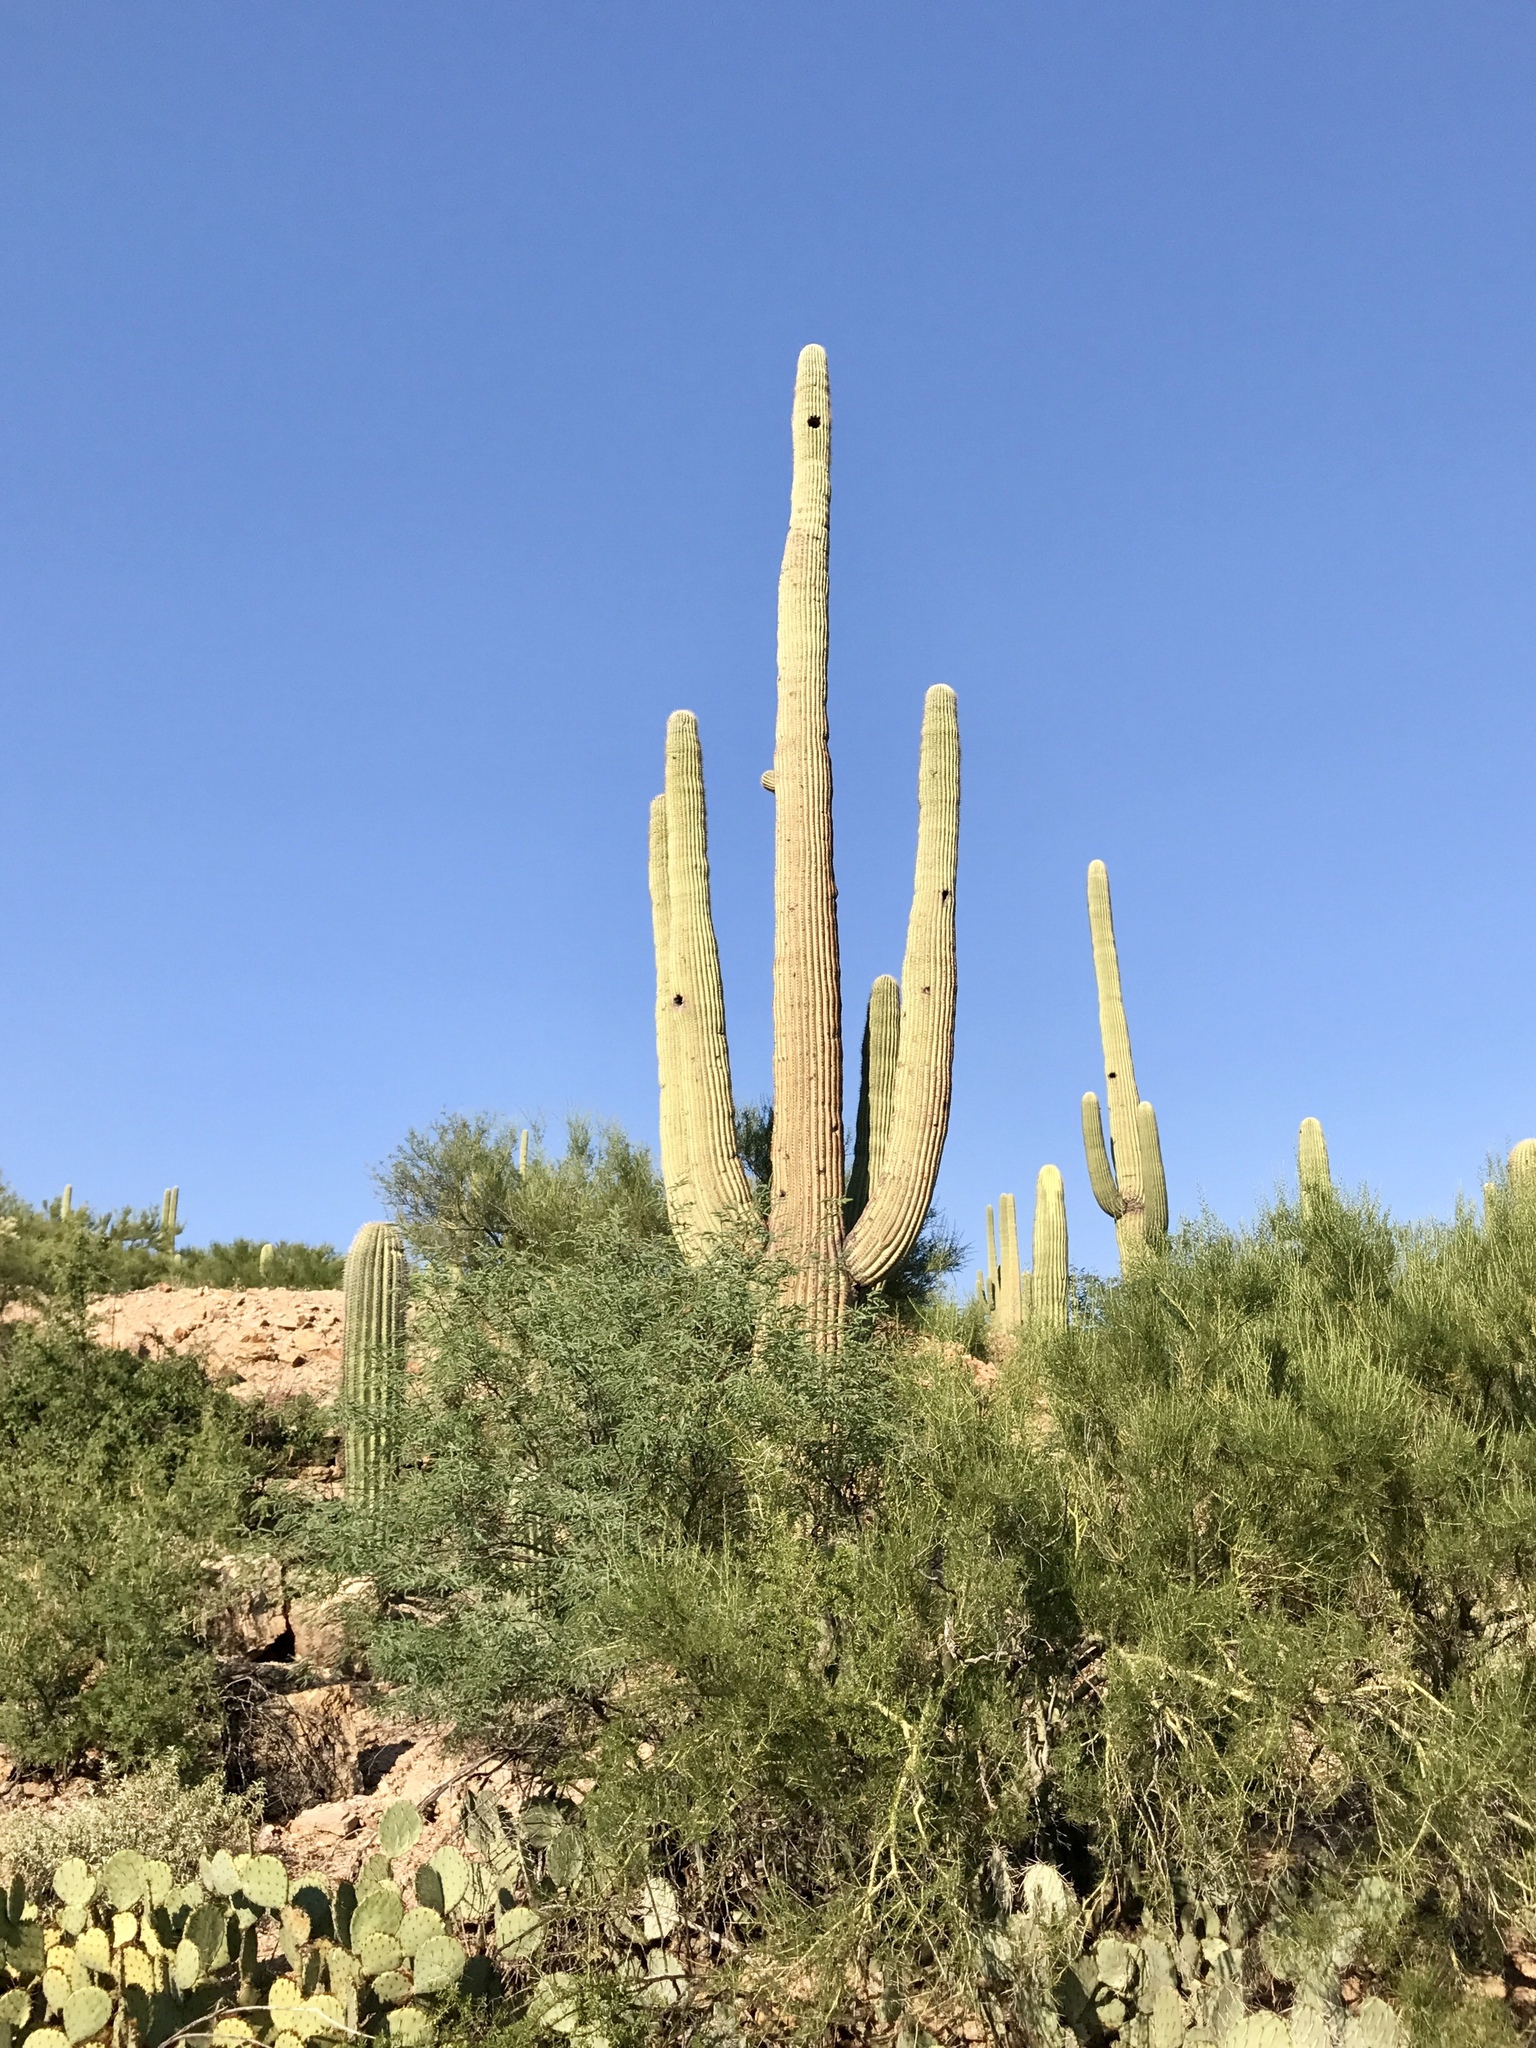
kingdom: Plantae
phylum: Tracheophyta
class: Magnoliopsida
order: Caryophyllales
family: Cactaceae
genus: Carnegiea
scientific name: Carnegiea gigantea
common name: Saguaro
